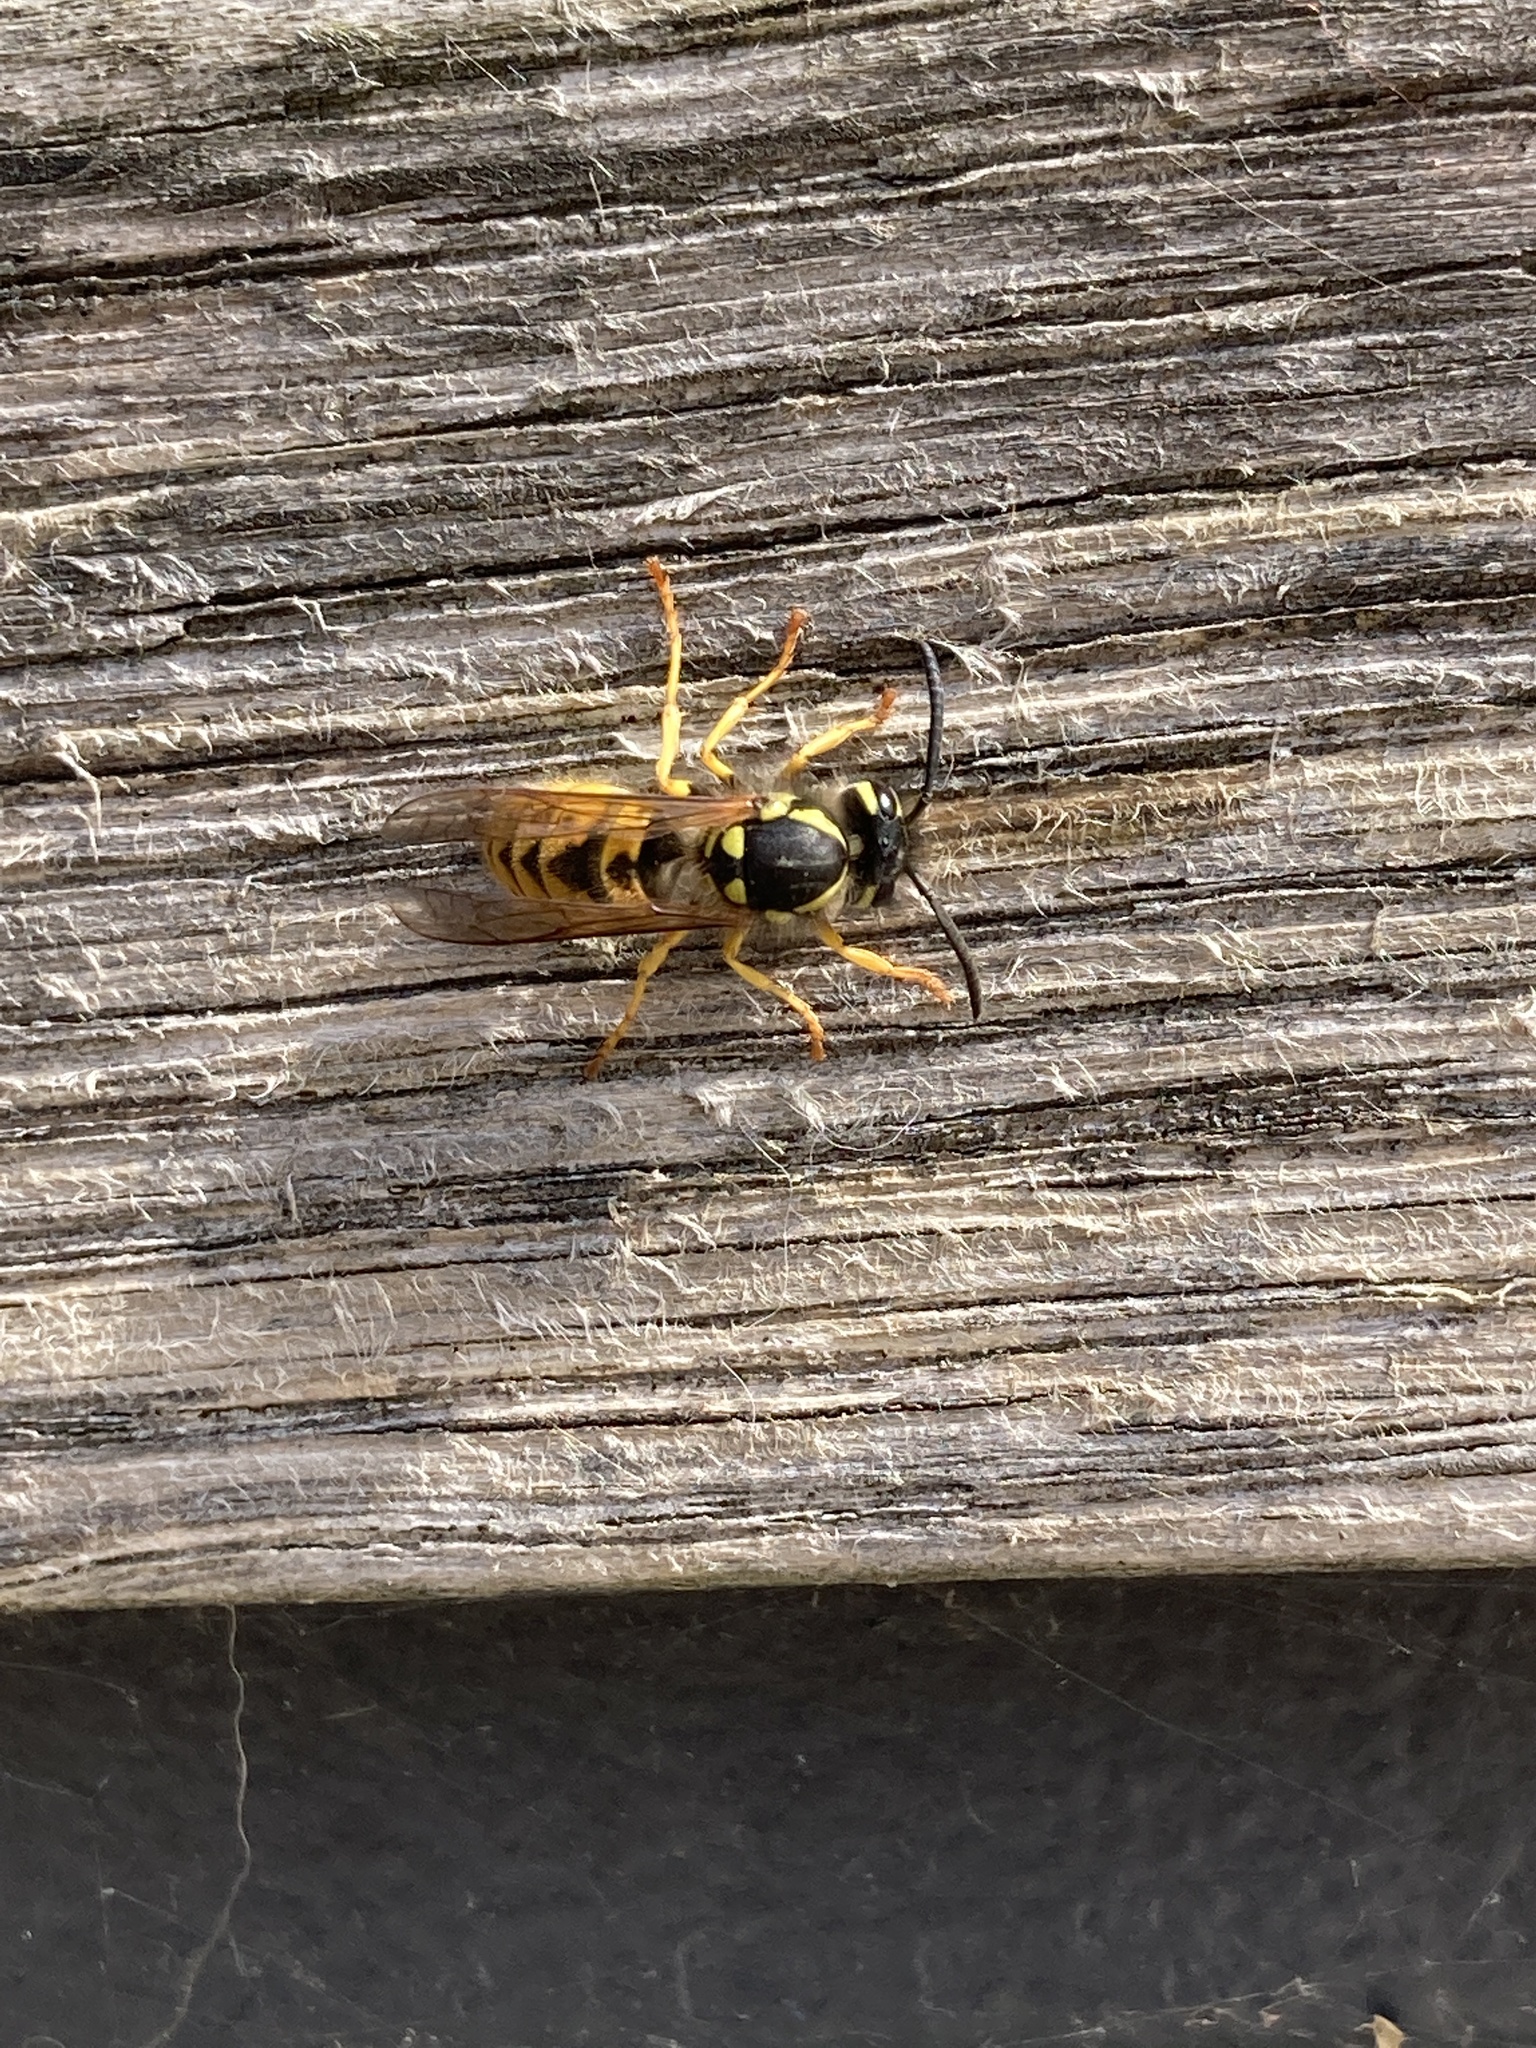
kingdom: Animalia
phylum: Arthropoda
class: Insecta
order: Hymenoptera
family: Vespidae
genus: Vespula
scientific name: Vespula germanica
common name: German wasp
